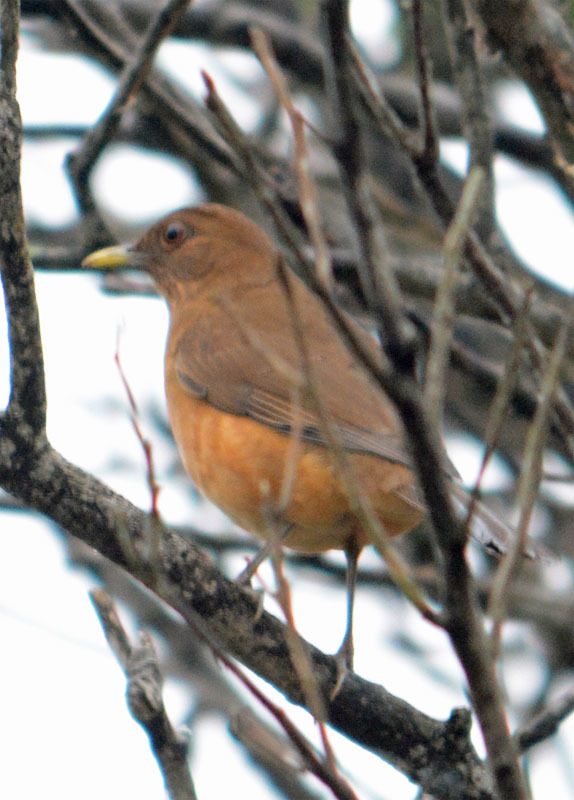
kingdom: Animalia
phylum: Chordata
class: Aves
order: Passeriformes
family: Turdidae
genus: Turdus
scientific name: Turdus grayi
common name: Clay-colored thrush
